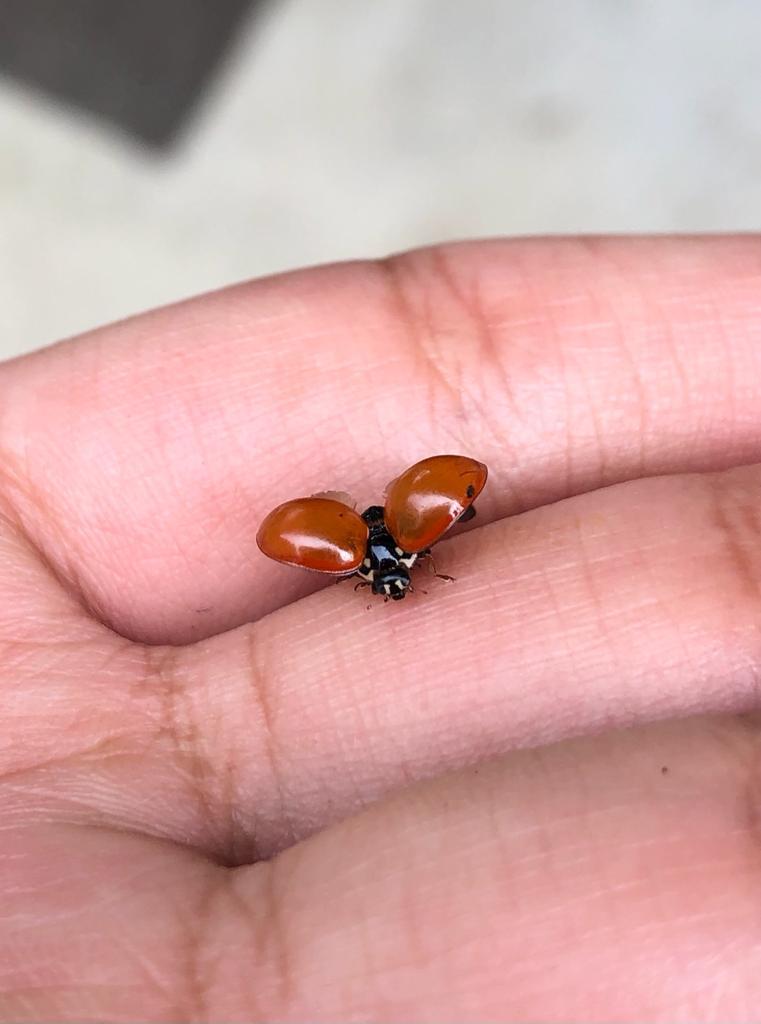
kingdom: Animalia
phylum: Arthropoda
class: Insecta
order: Coleoptera
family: Coccinellidae
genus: Cycloneda
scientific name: Cycloneda sanguinea
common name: Ladybird beetle
